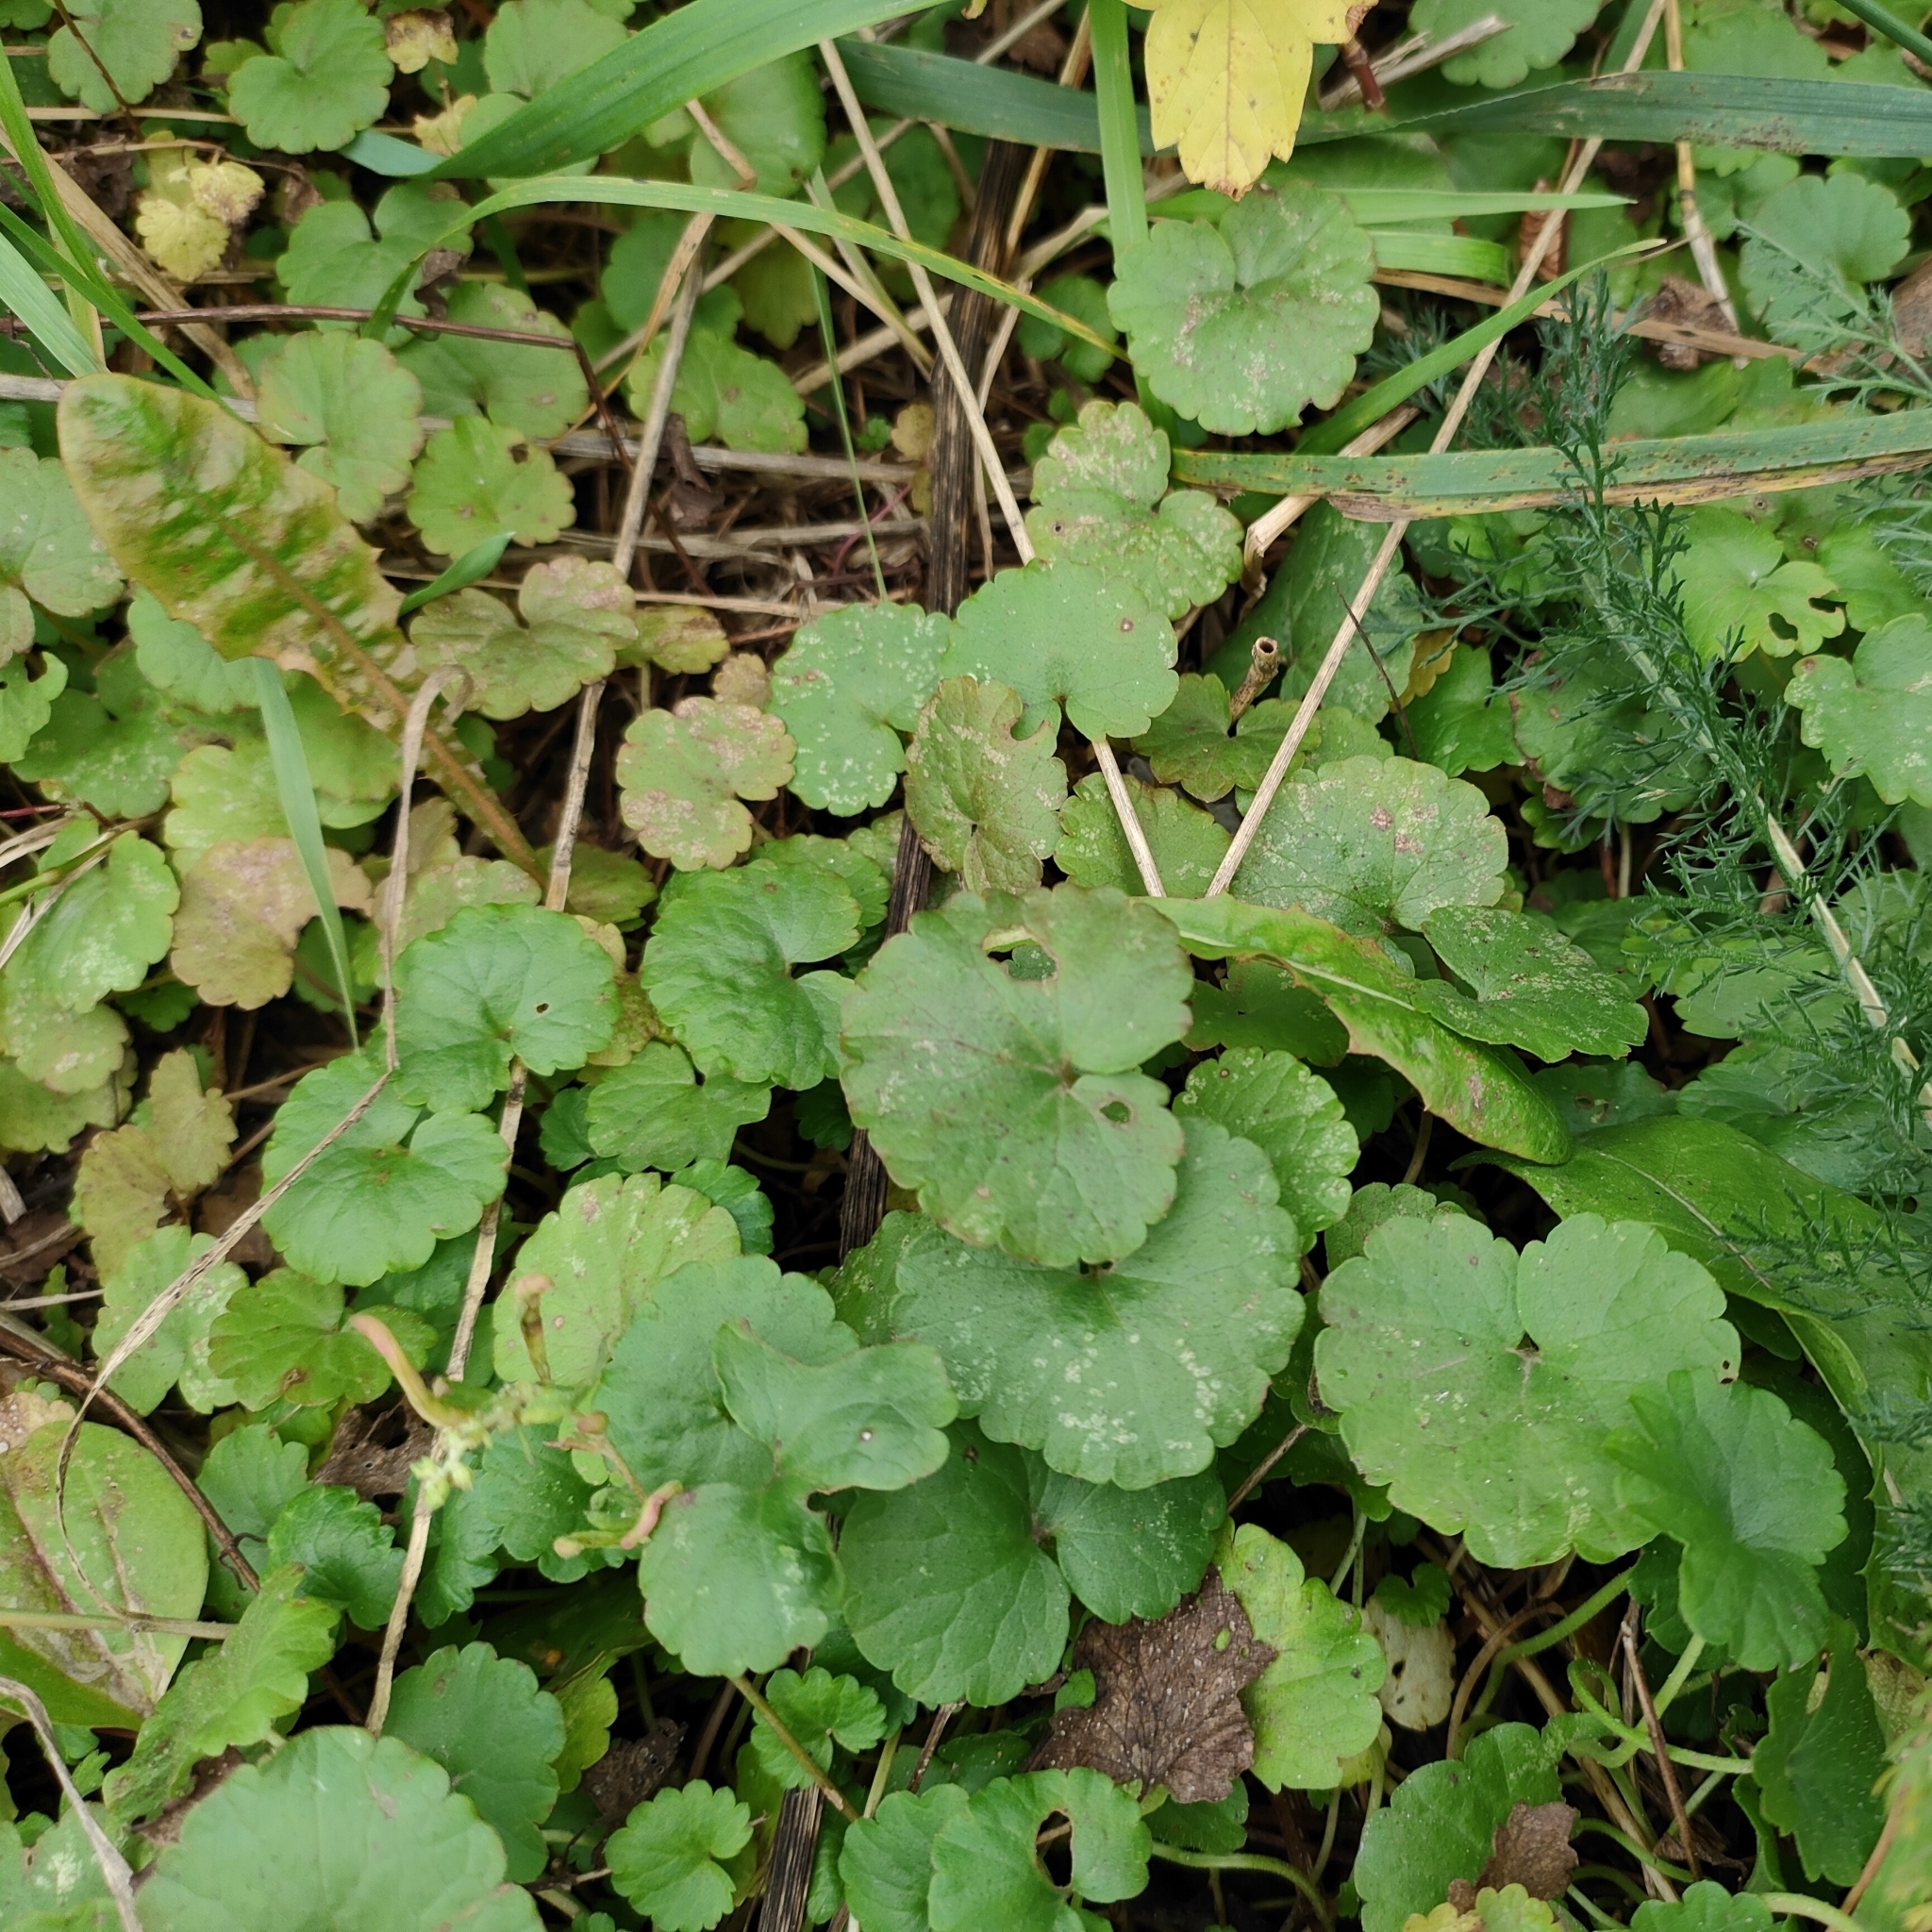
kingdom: Plantae
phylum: Tracheophyta
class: Magnoliopsida
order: Lamiales
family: Lamiaceae
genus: Glechoma
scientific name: Glechoma hederacea
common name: Ground ivy
